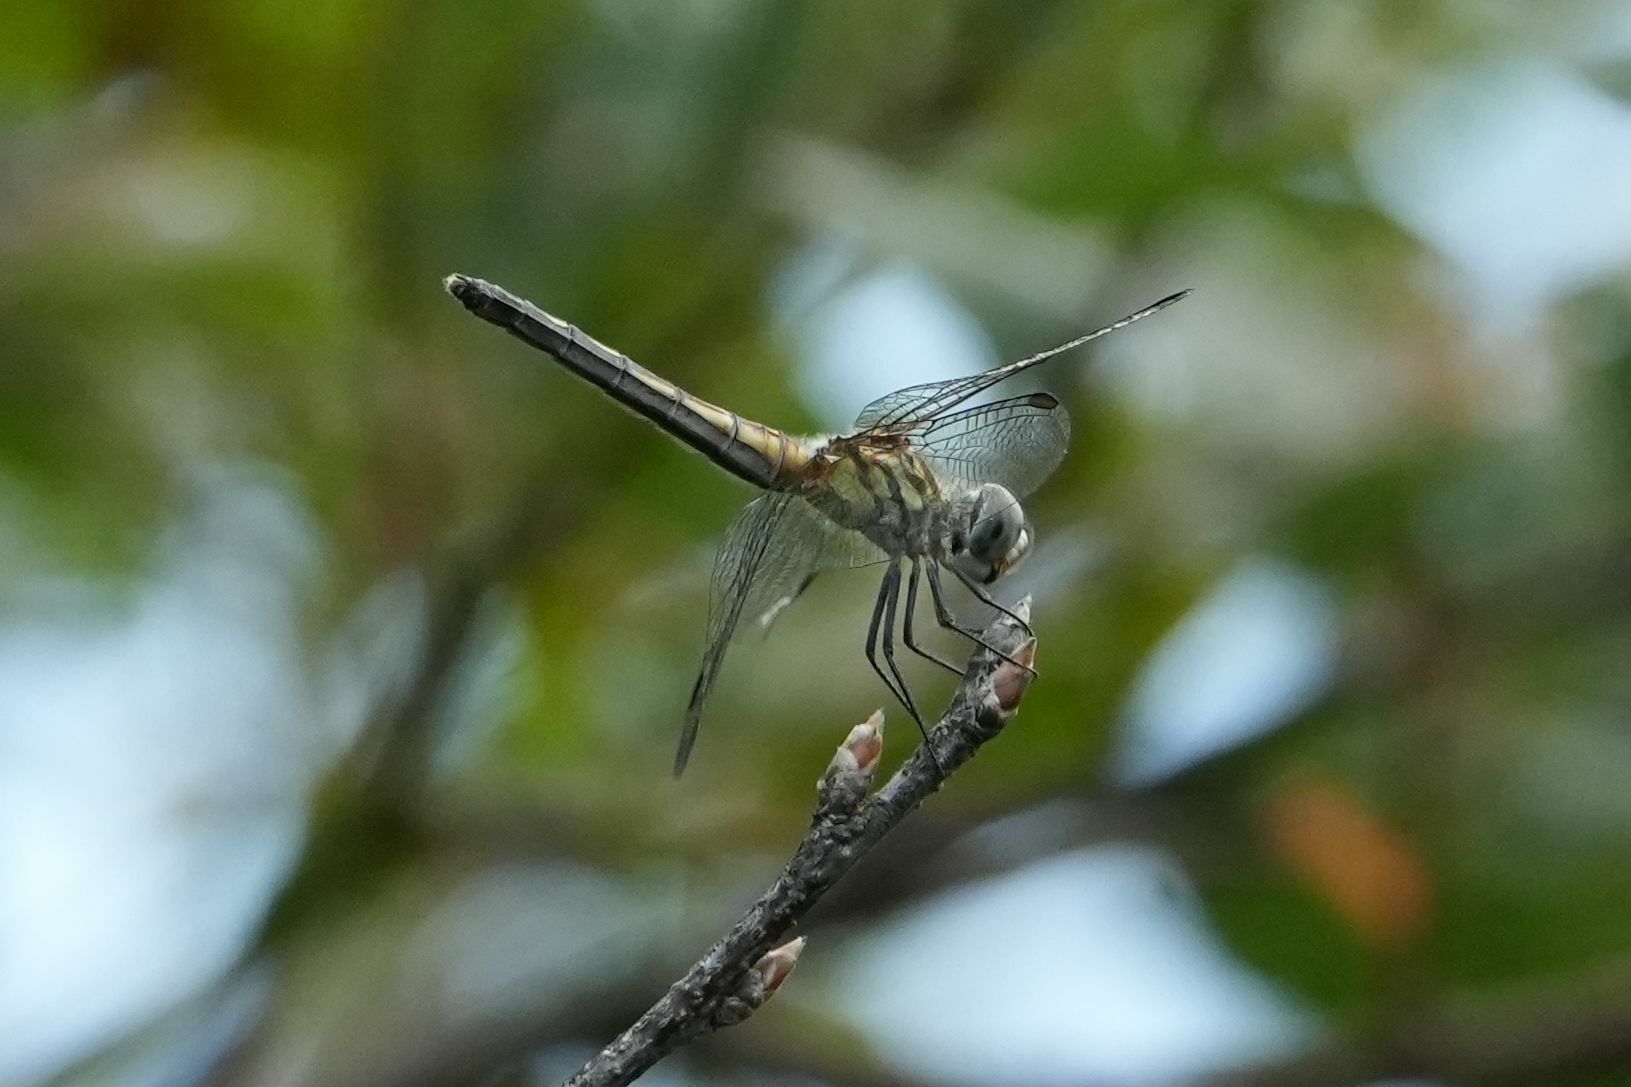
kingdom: Animalia
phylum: Arthropoda
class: Insecta
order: Odonata
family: Libellulidae
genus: Pachydiplax
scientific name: Pachydiplax longipennis
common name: Blue dasher
